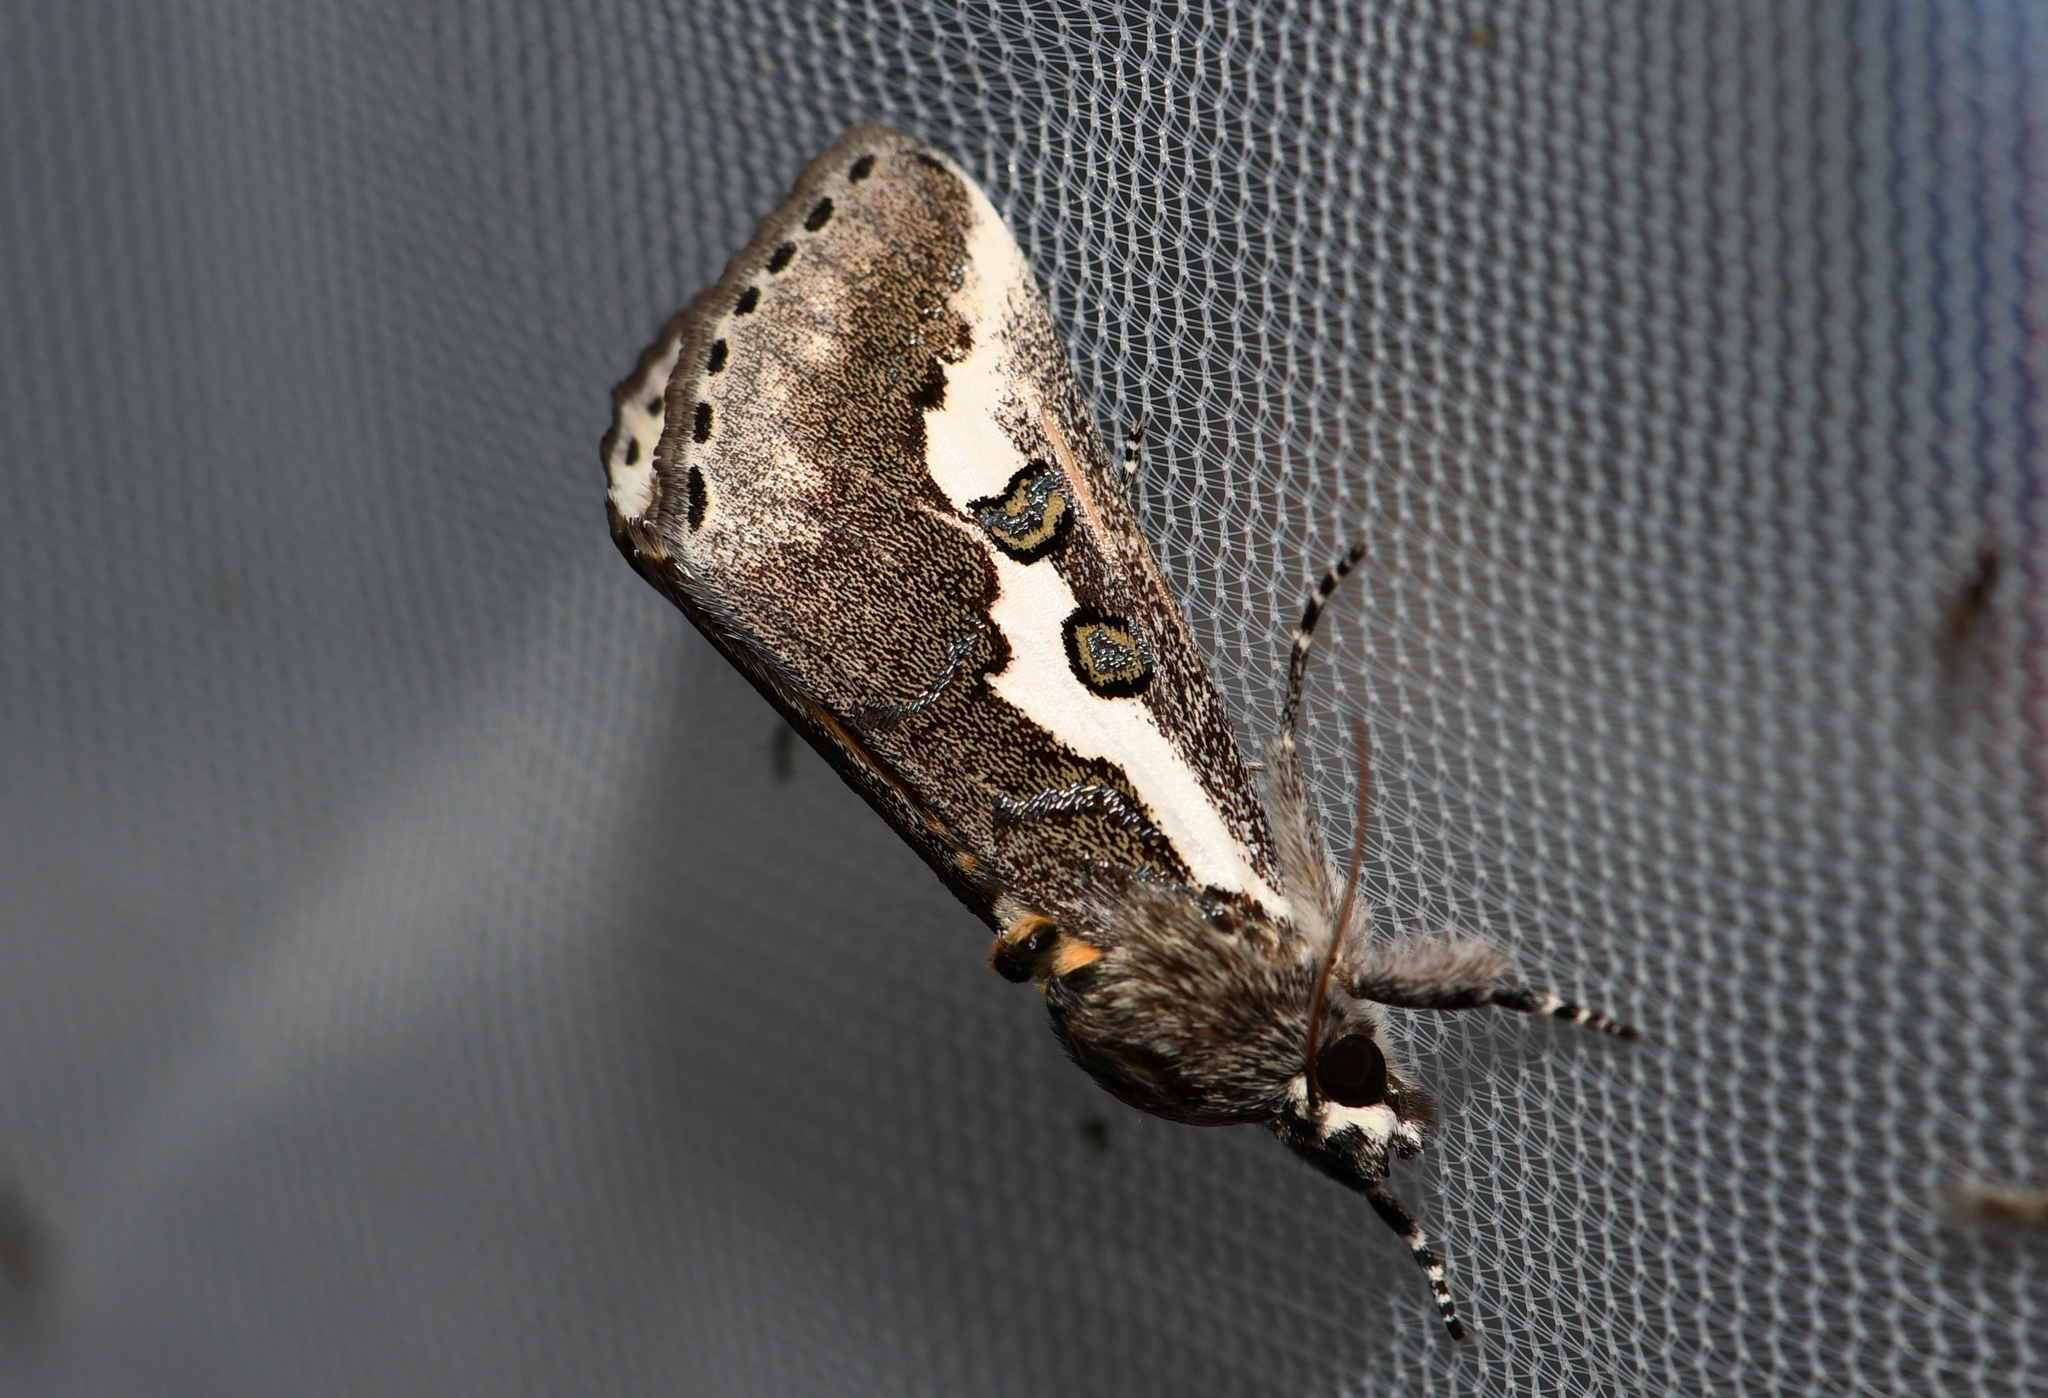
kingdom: Animalia
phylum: Arthropoda
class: Insecta
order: Lepidoptera
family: Noctuidae
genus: Euscirrhopterus
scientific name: Euscirrhopterus gloveri
